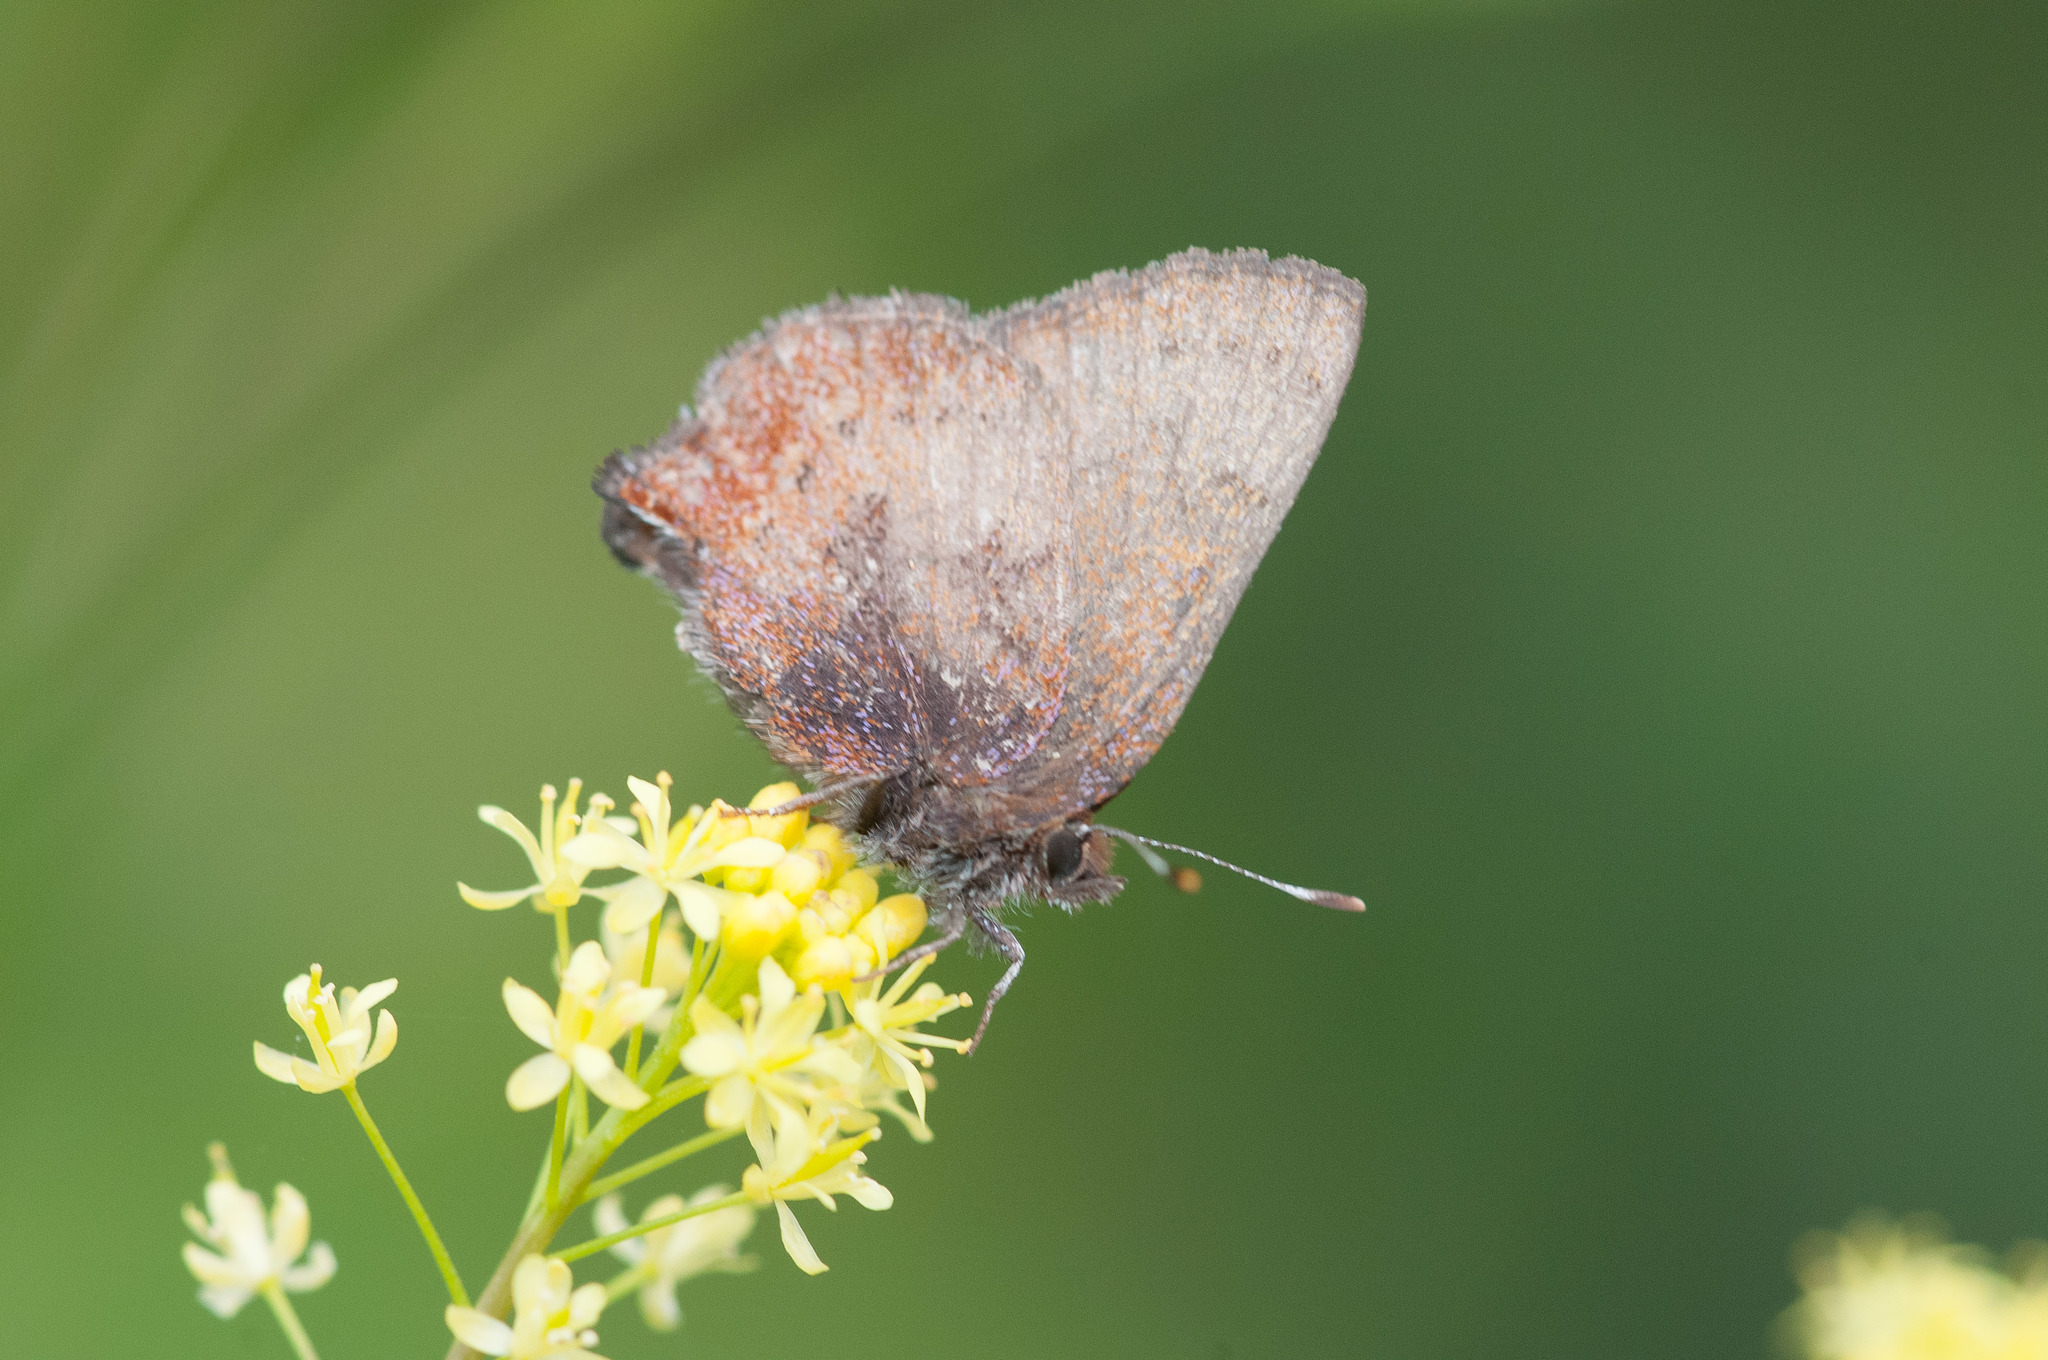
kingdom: Animalia
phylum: Arthropoda
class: Insecta
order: Lepidoptera
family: Lycaenidae
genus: Incisalia
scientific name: Incisalia irioides
